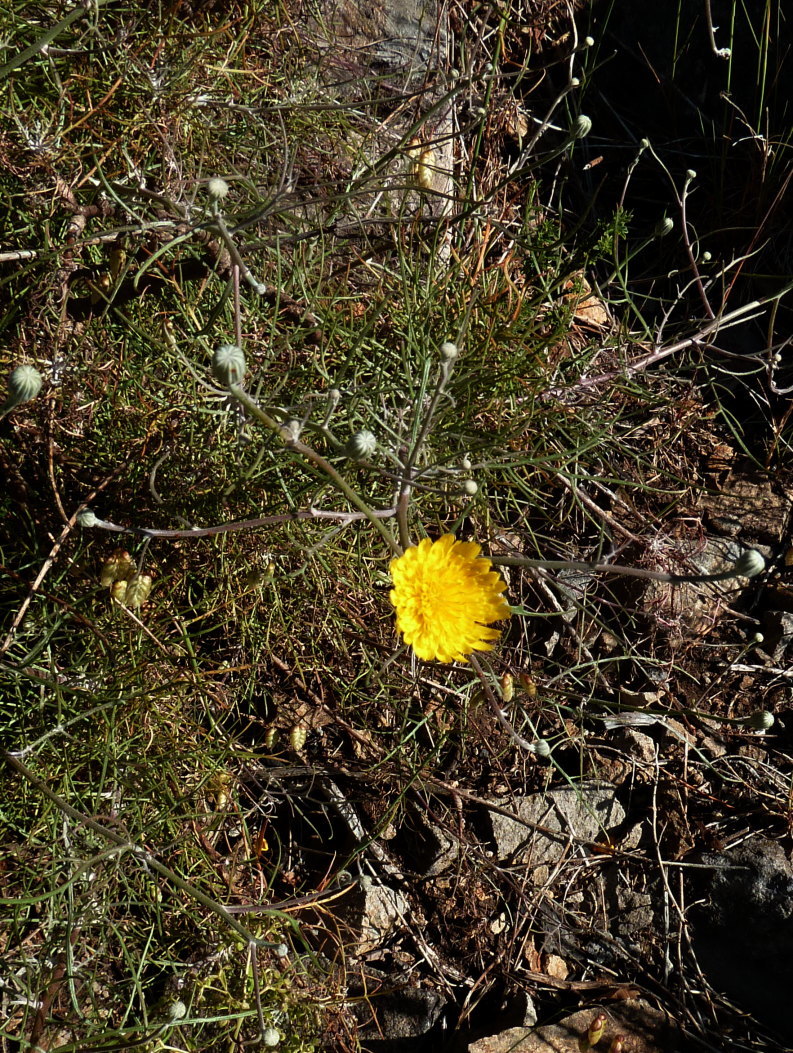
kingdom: Plantae
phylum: Tracheophyta
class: Magnoliopsida
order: Asterales
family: Asteraceae
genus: Tolpis
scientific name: Tolpis succulenta
